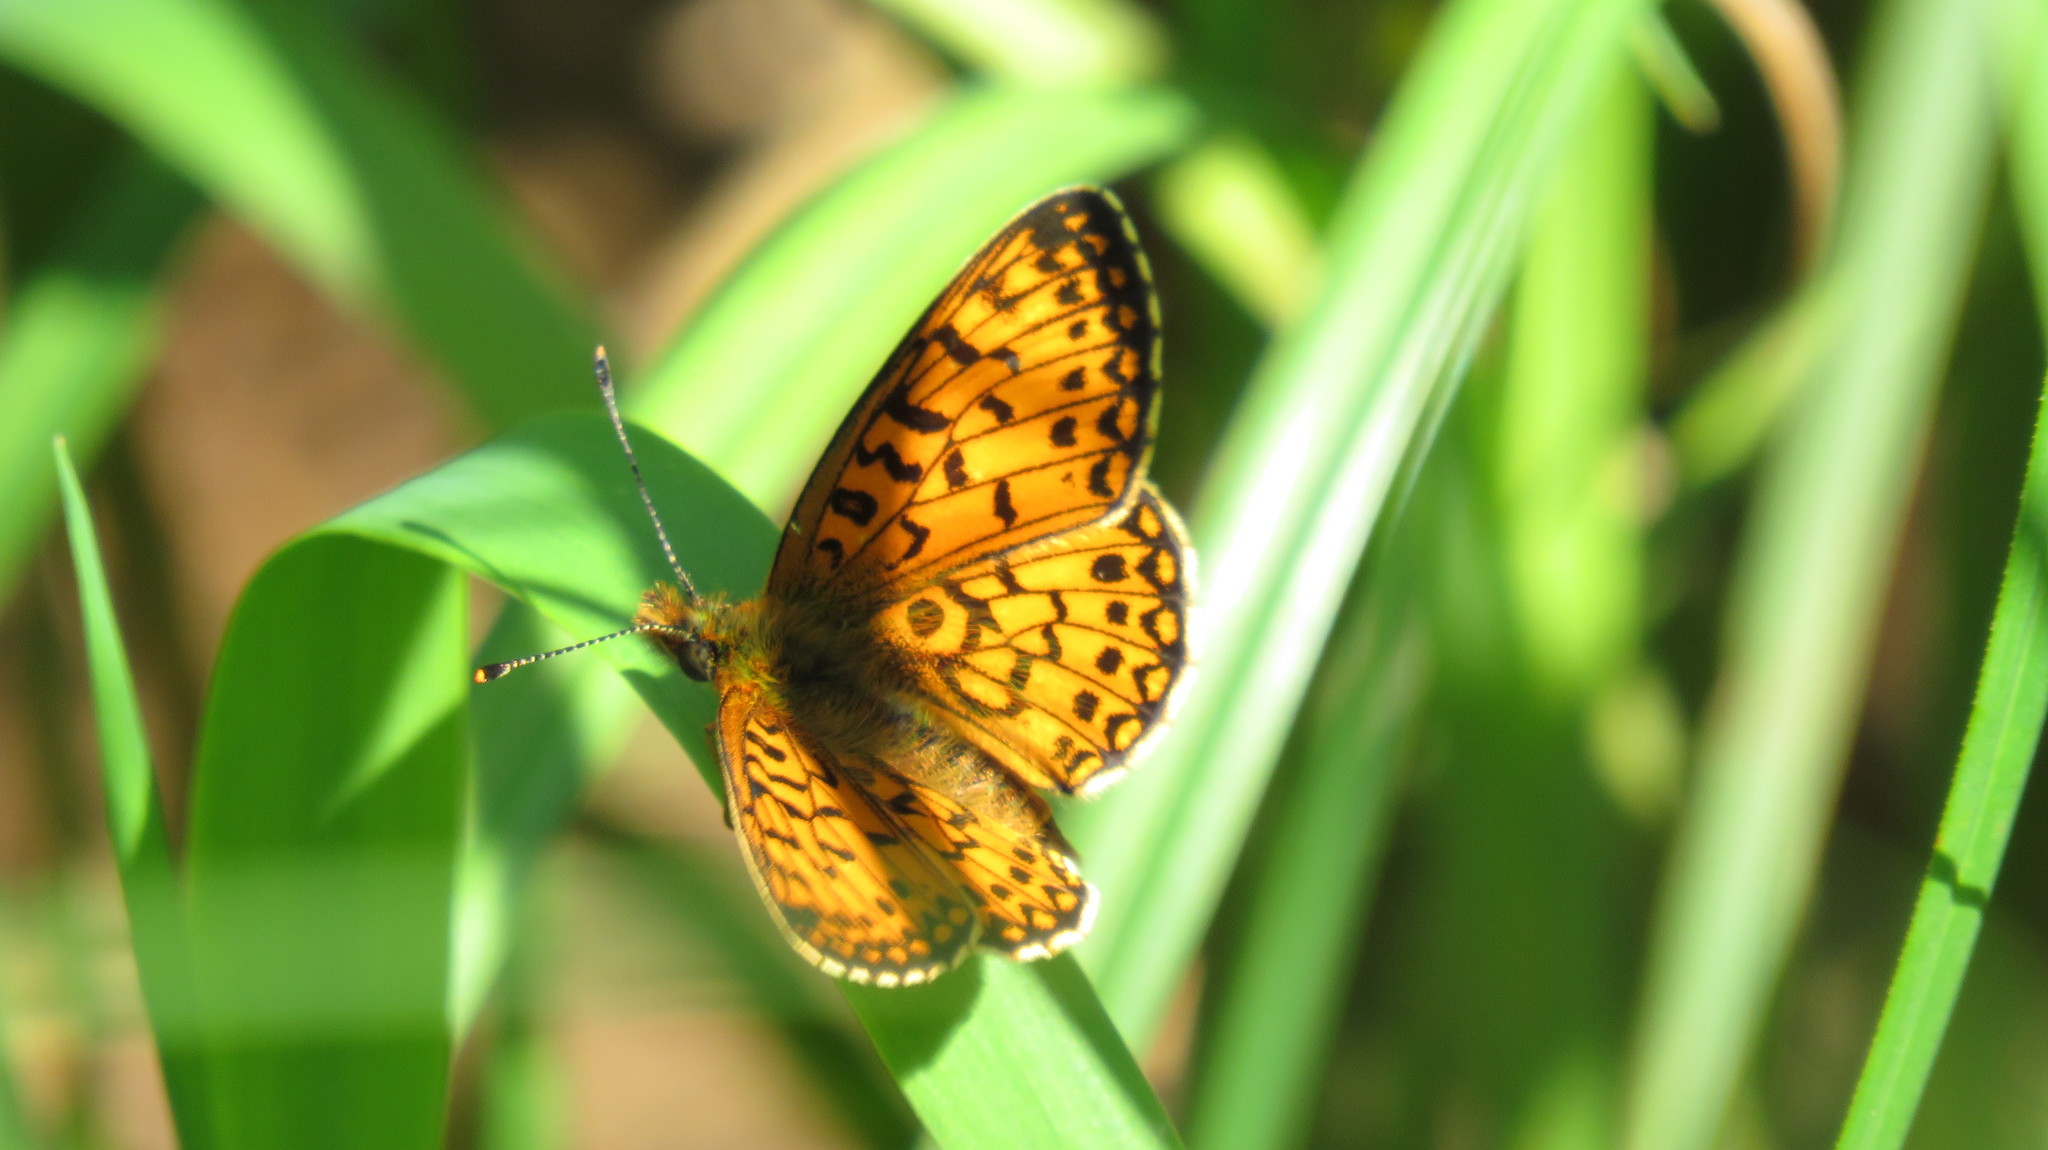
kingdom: Animalia
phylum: Arthropoda
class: Insecta
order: Lepidoptera
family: Nymphalidae
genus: Boloria
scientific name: Boloria selene
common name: Small pearl-bordered fritillary
